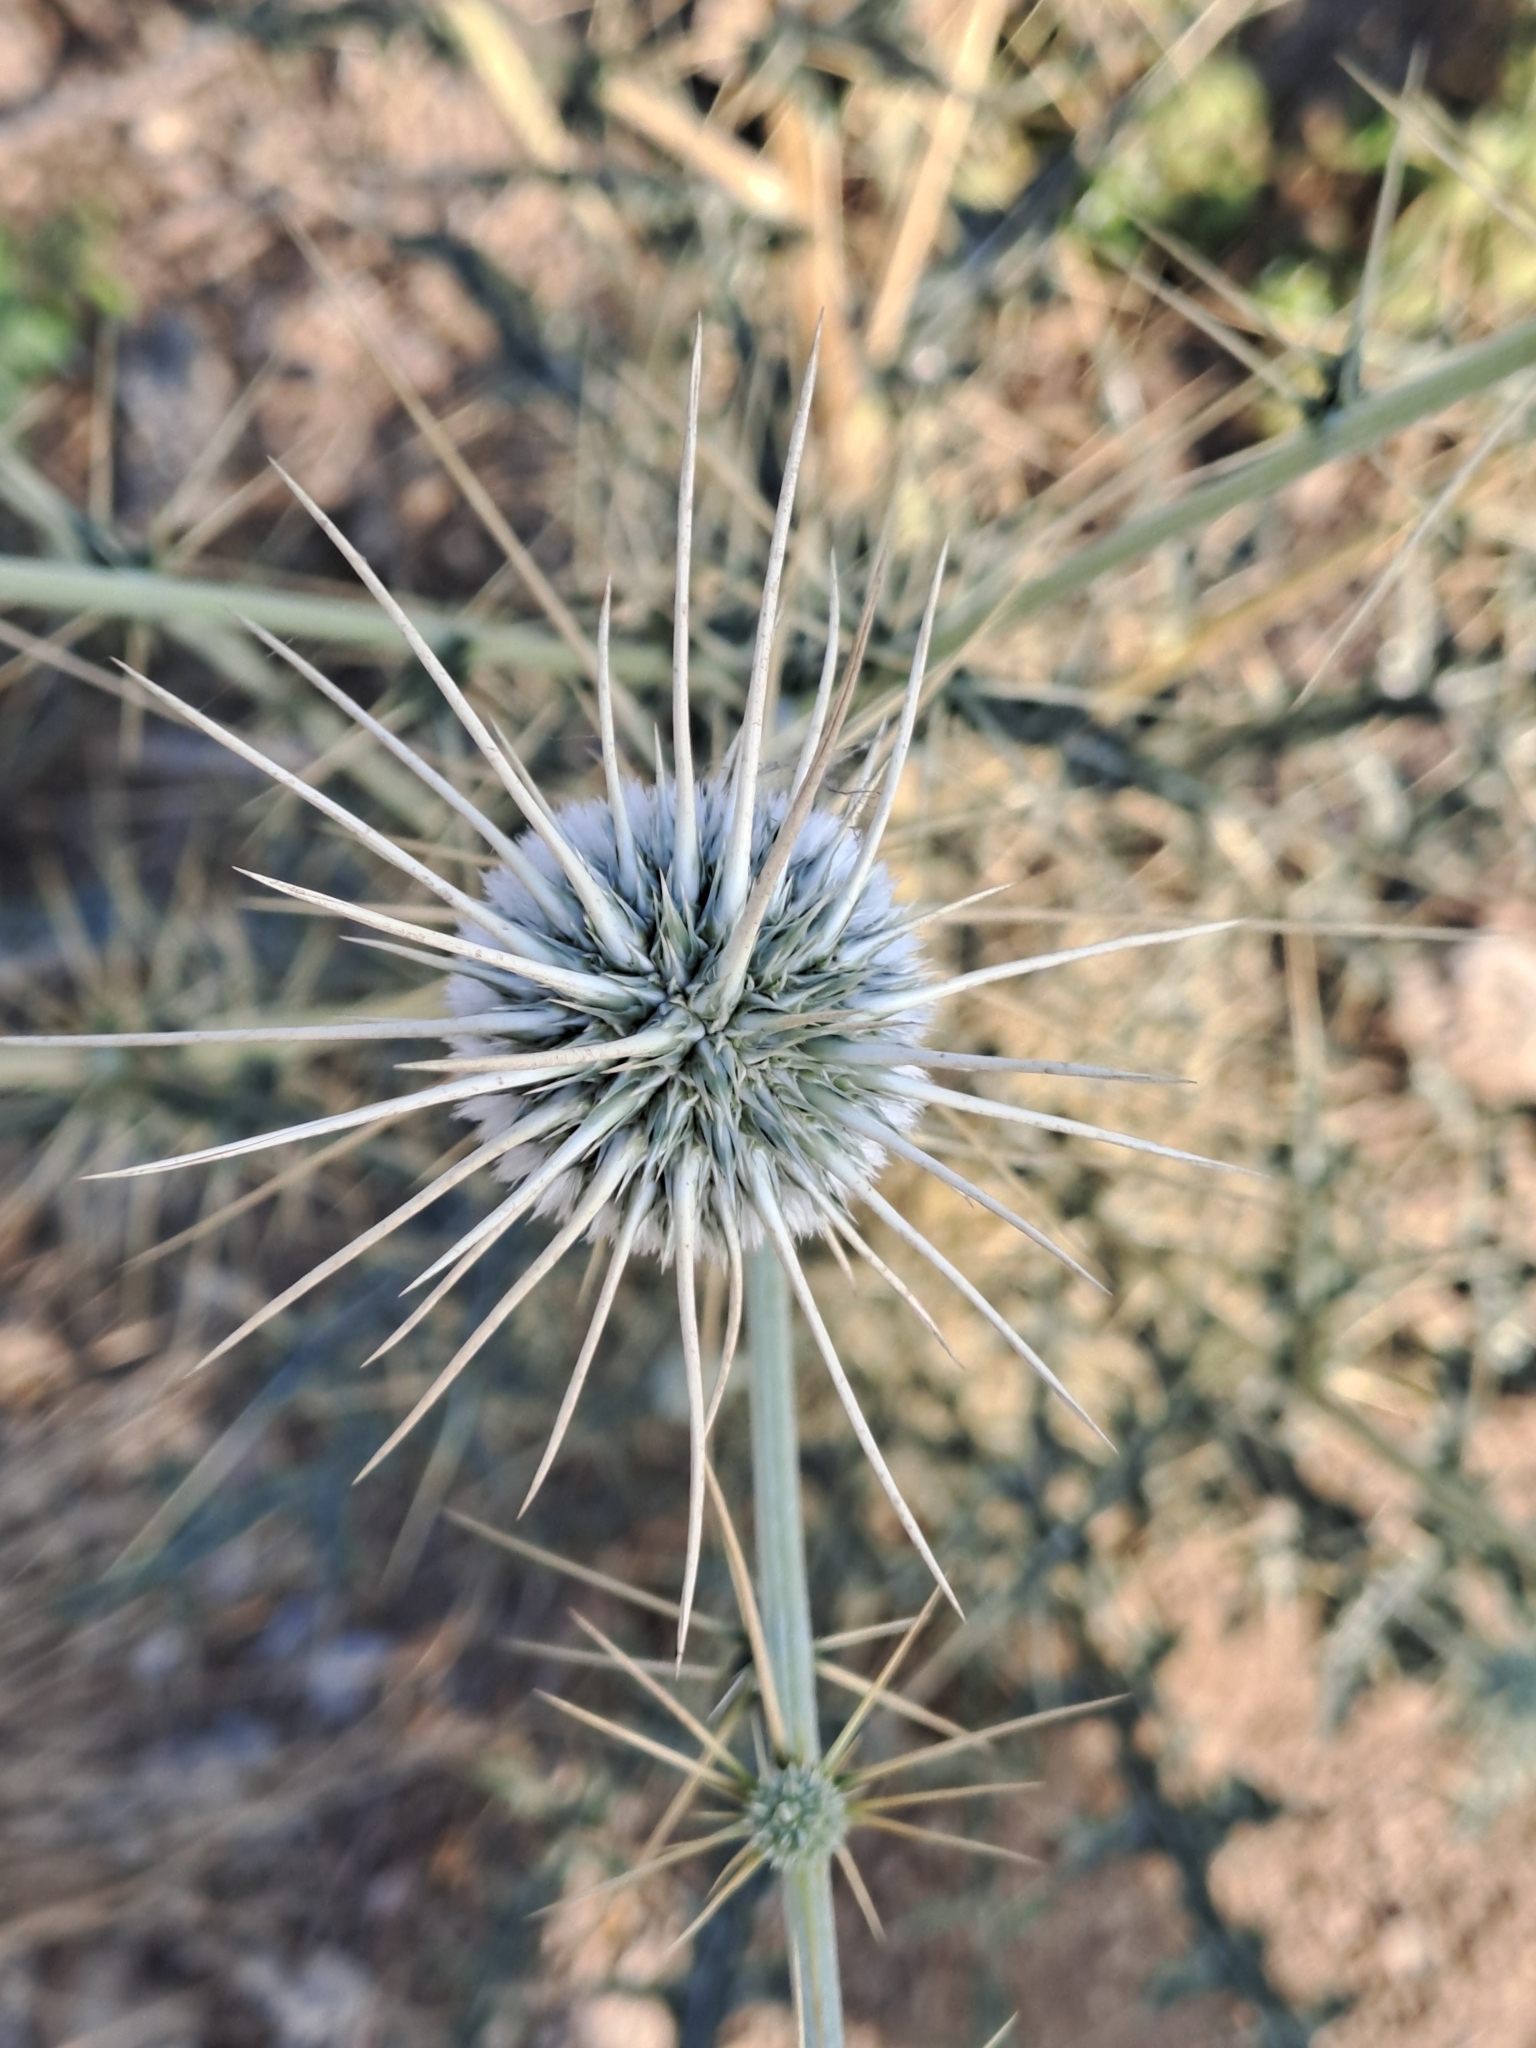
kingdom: Plantae
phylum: Tracheophyta
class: Magnoliopsida
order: Asterales
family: Asteraceae
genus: Echinops
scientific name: Echinops echinatus
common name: Indian globe thistle
